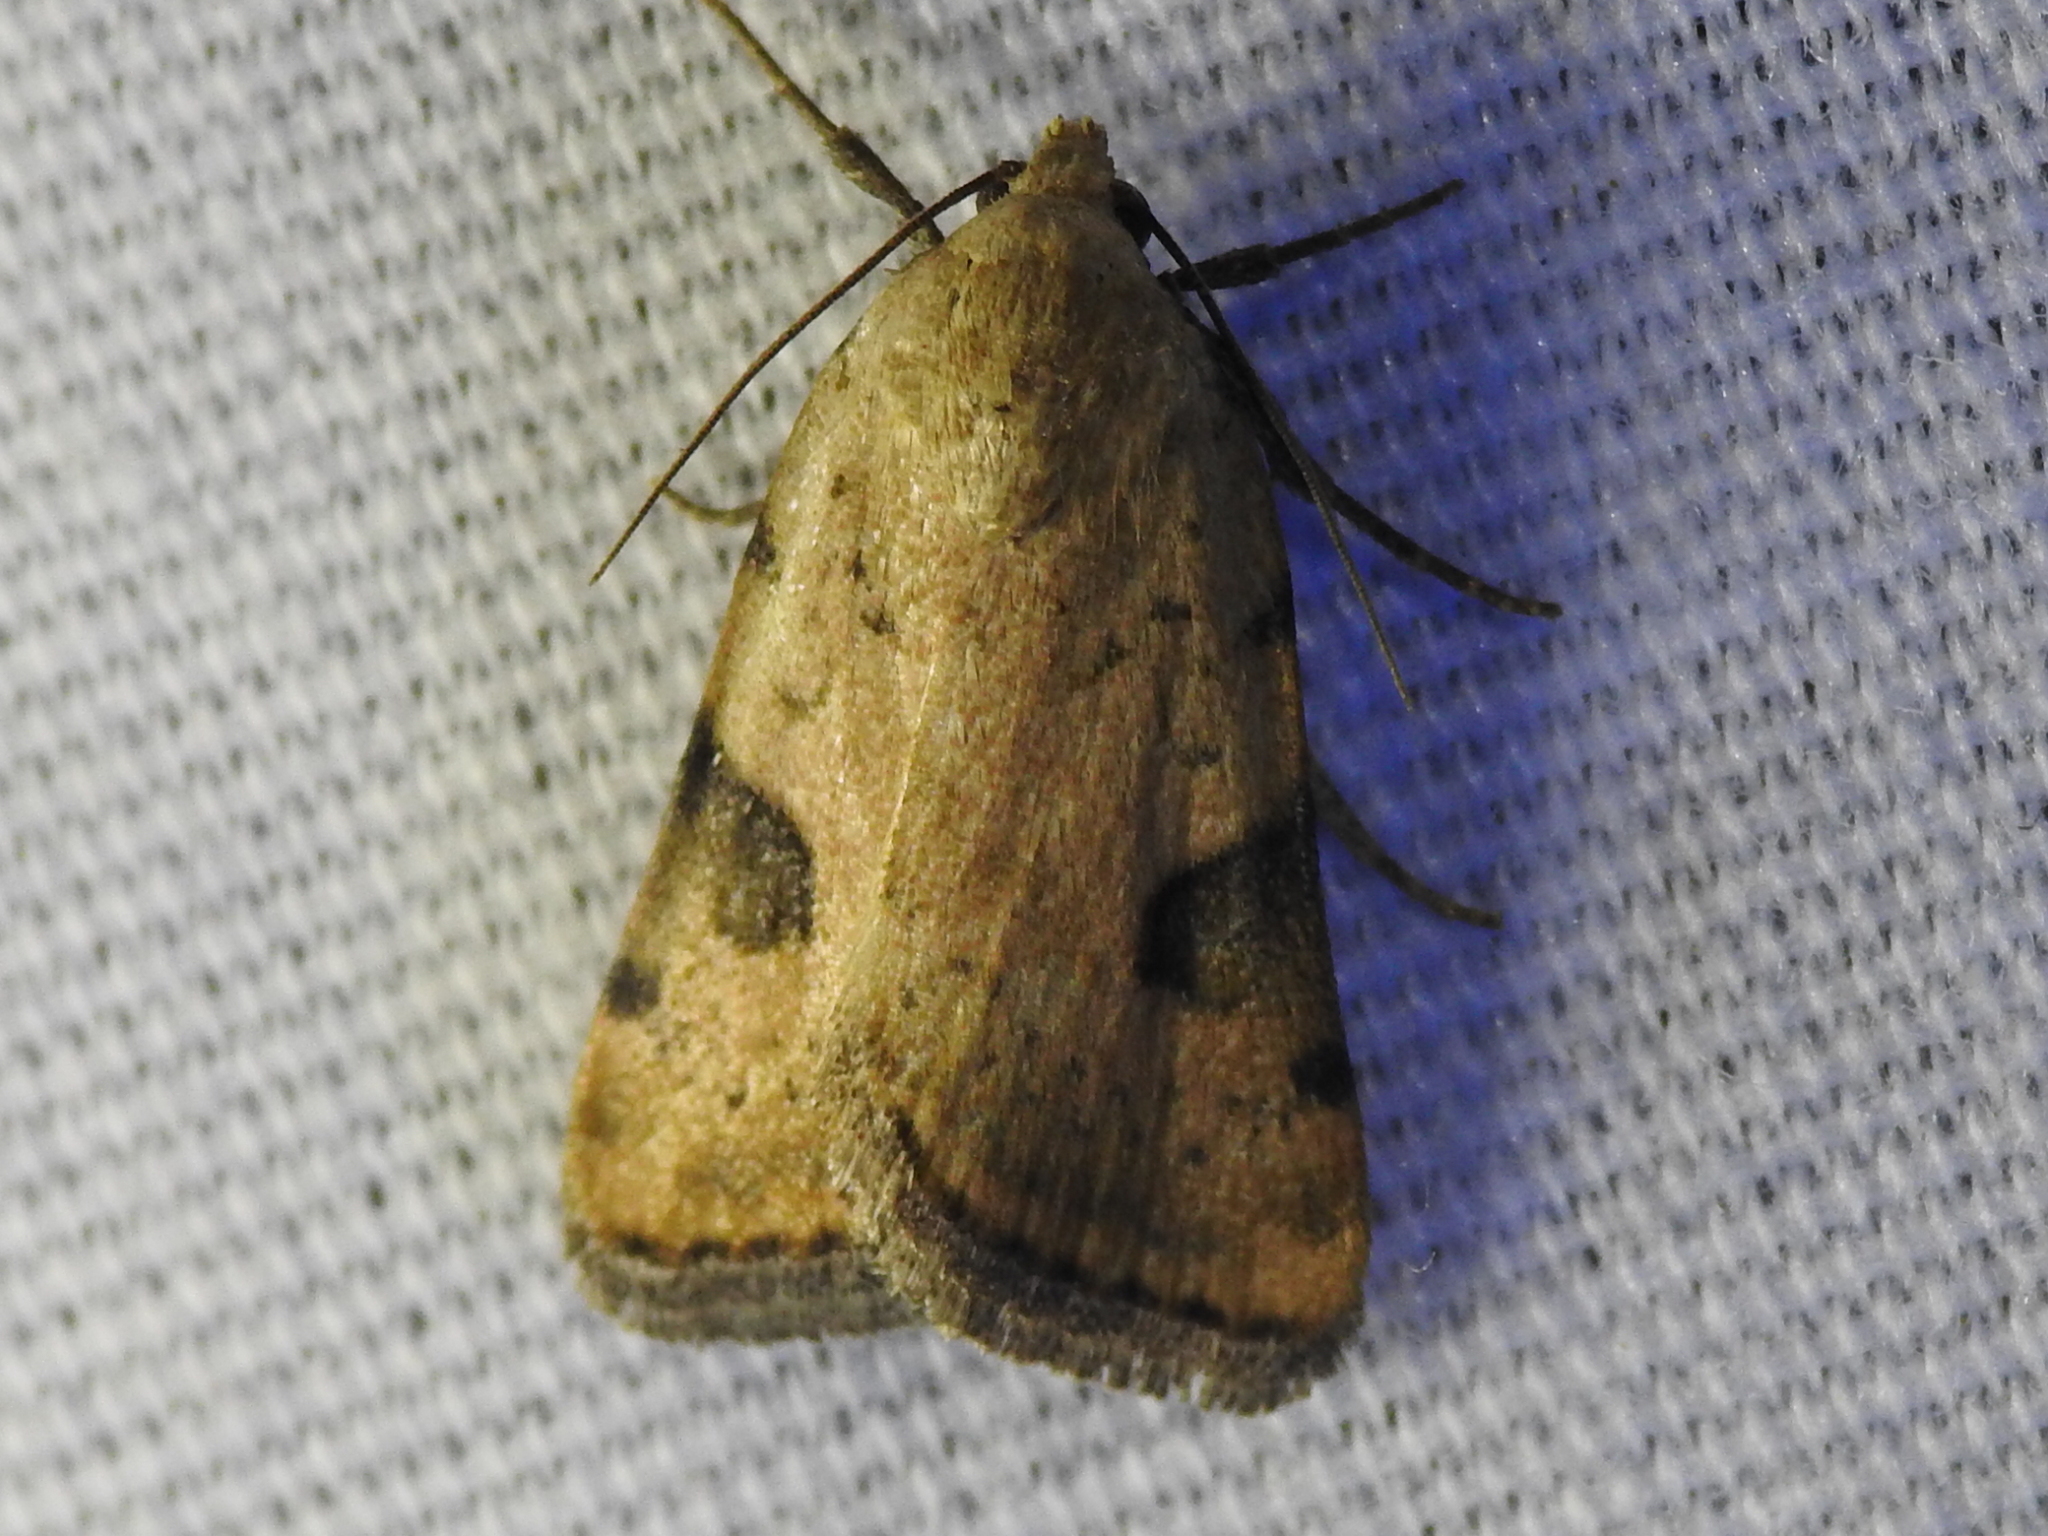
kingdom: Animalia
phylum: Arthropoda
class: Insecta
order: Lepidoptera
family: Noctuidae
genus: Micrathetis
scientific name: Micrathetis costiplaga
